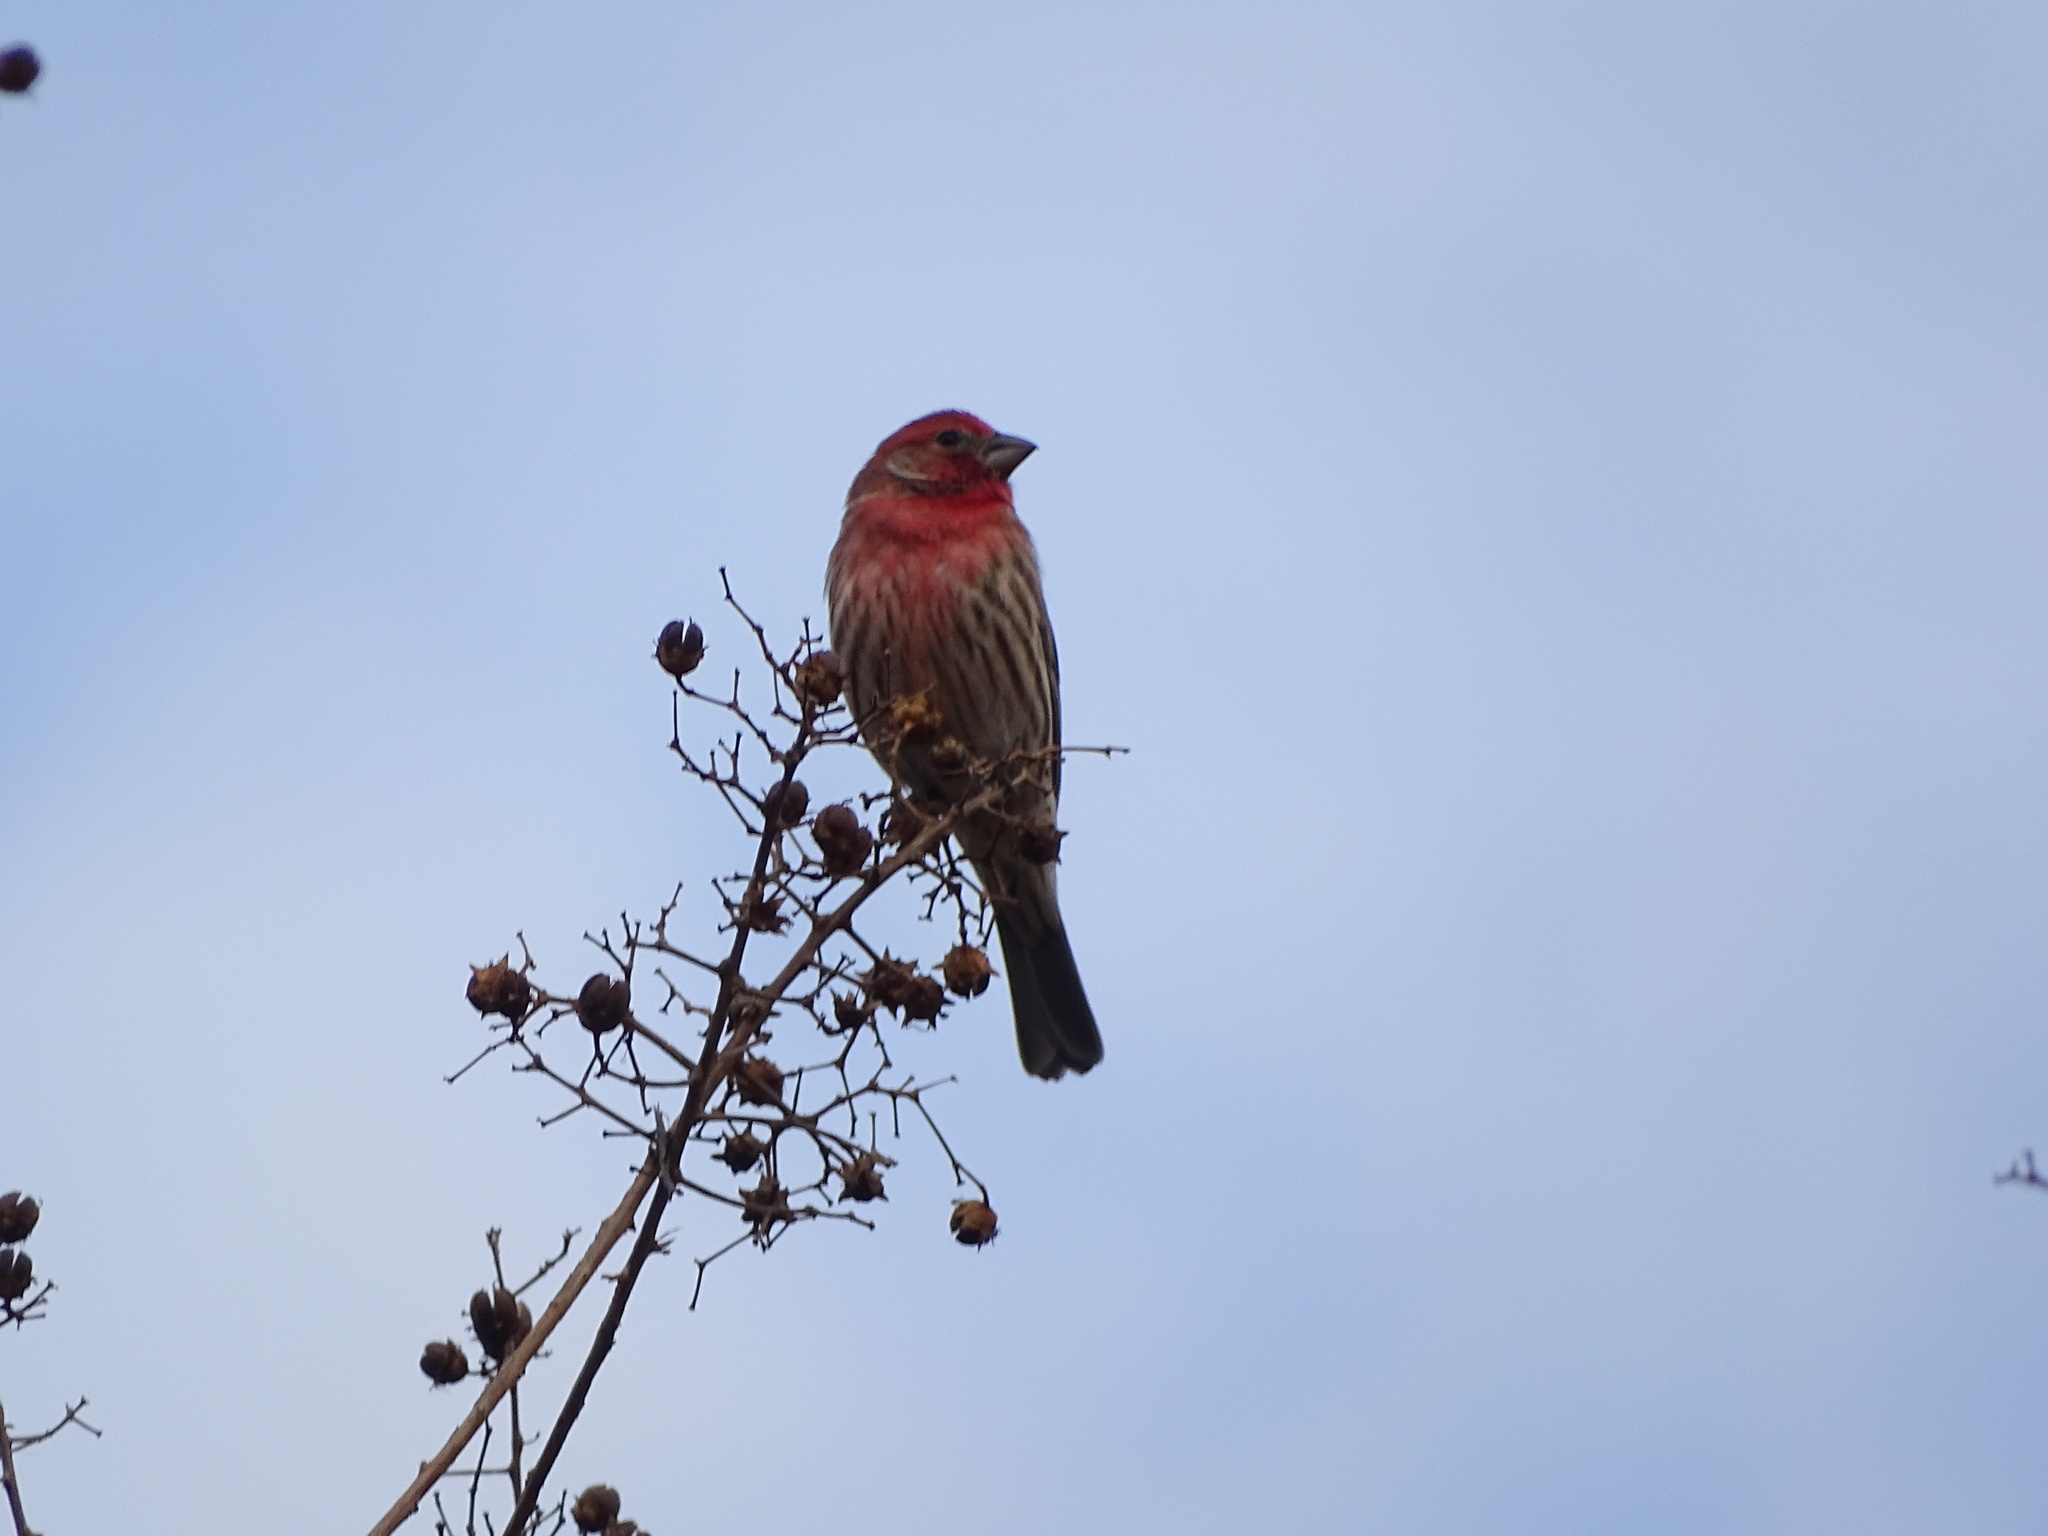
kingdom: Animalia
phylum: Chordata
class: Aves
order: Passeriformes
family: Fringillidae
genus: Haemorhous
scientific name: Haemorhous mexicanus
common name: House finch
